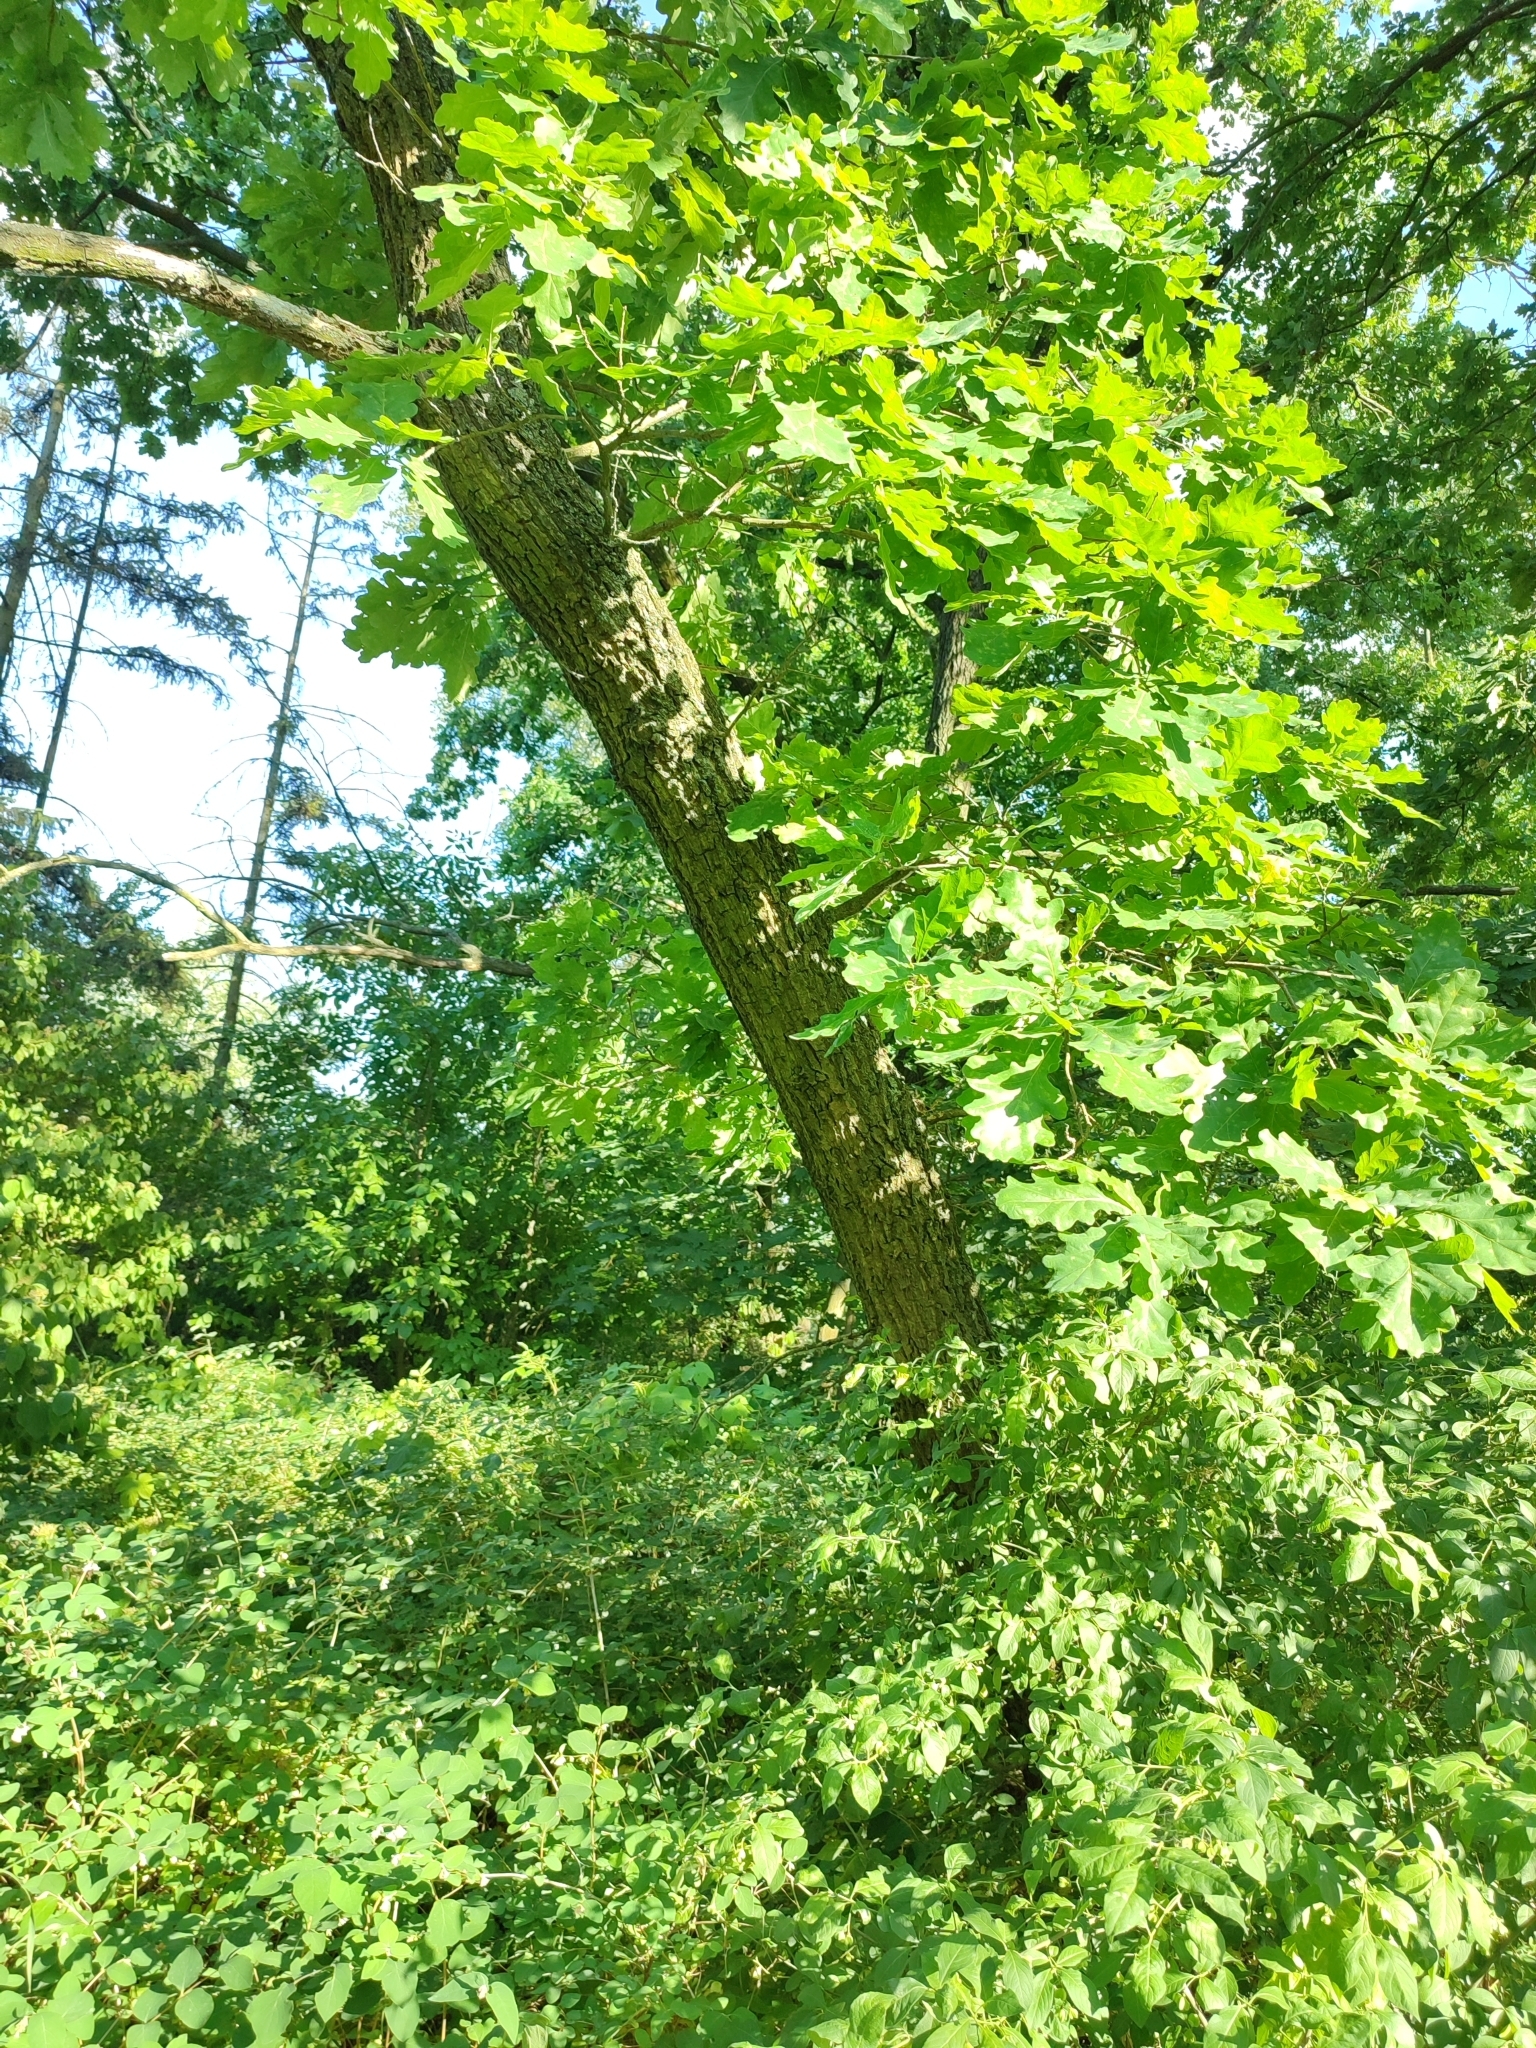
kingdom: Plantae
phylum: Tracheophyta
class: Magnoliopsida
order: Fagales
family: Fagaceae
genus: Quercus
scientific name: Quercus robur
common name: Pedunculate oak
